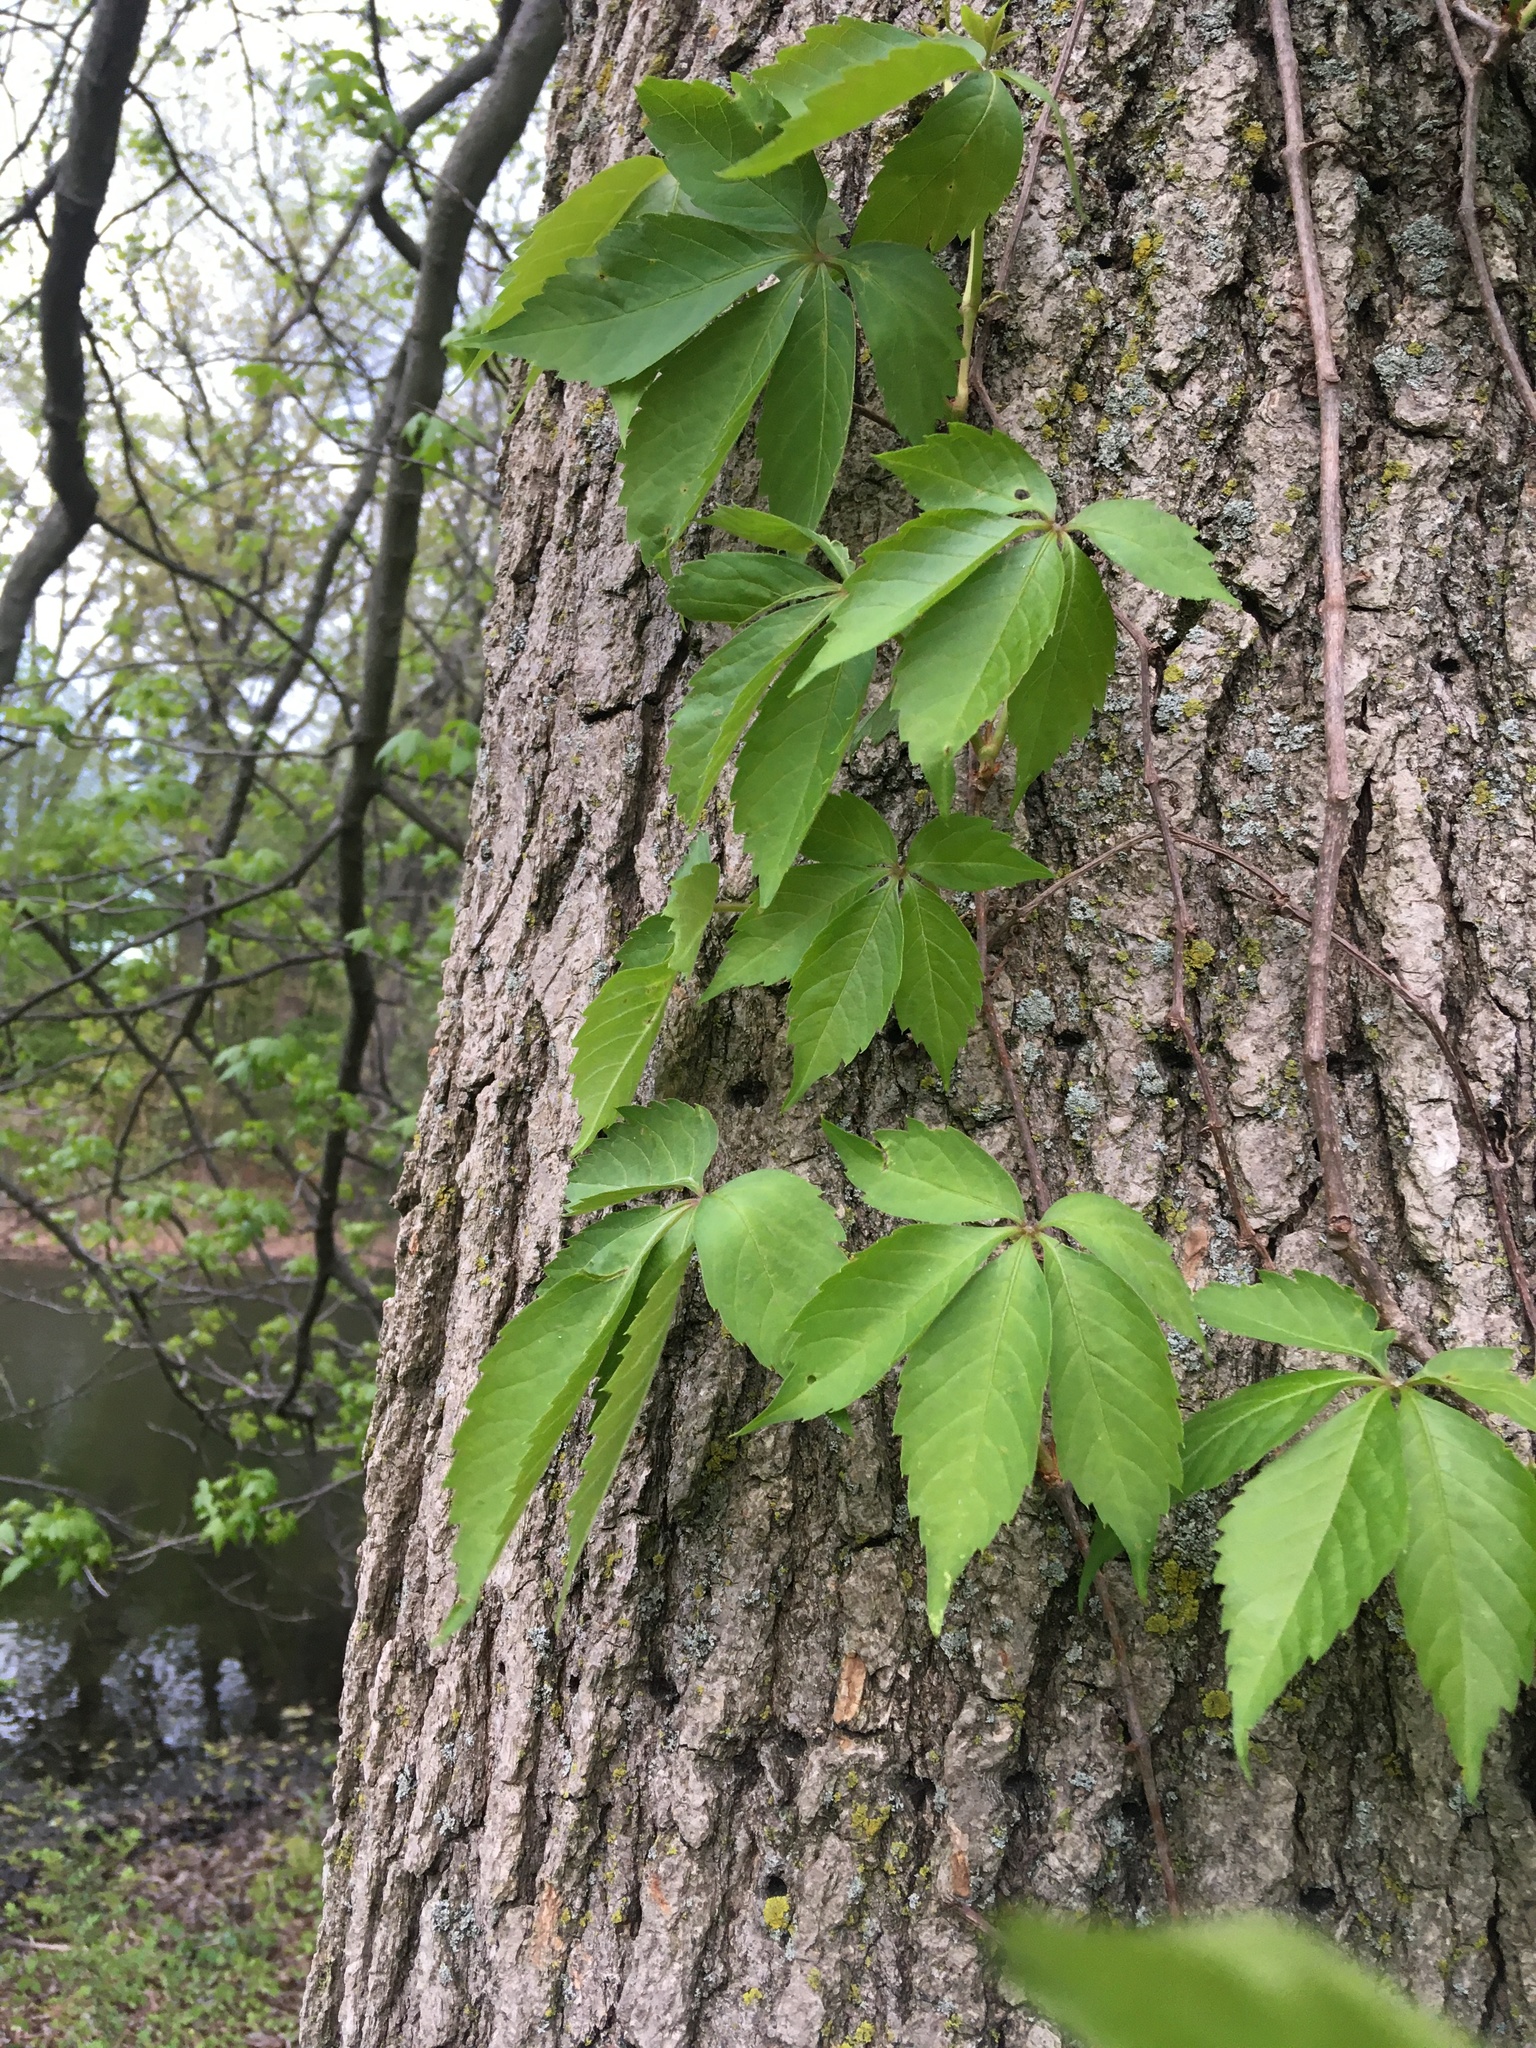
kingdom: Plantae
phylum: Tracheophyta
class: Magnoliopsida
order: Vitales
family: Vitaceae
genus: Parthenocissus
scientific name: Parthenocissus quinquefolia
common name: Virginia-creeper
